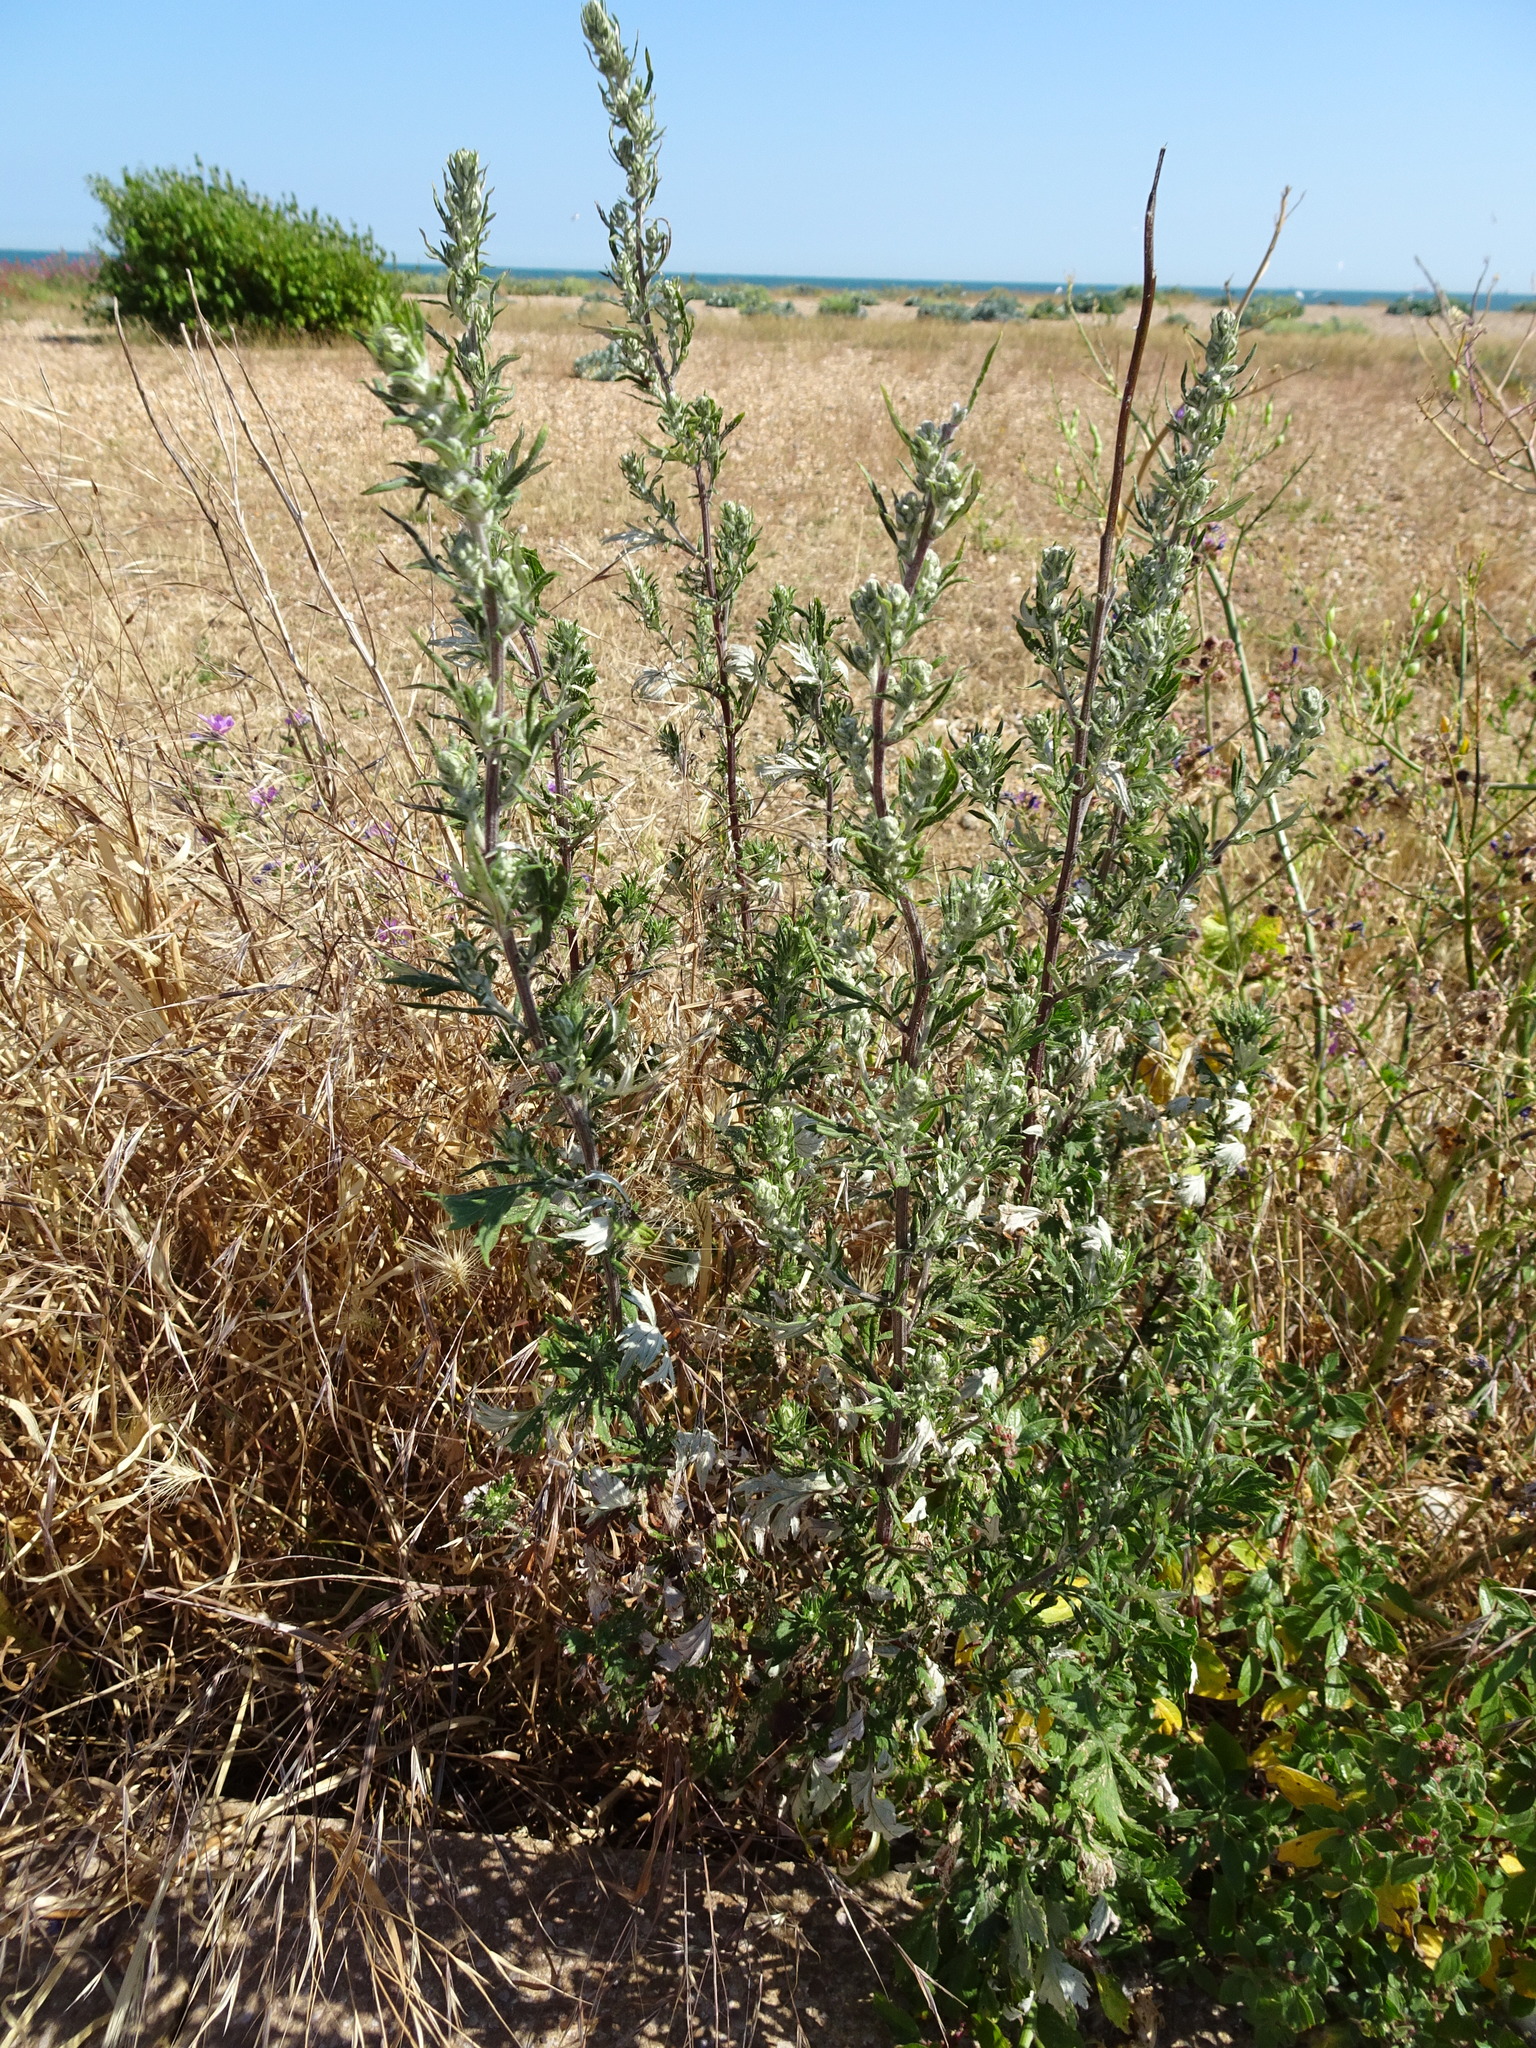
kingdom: Plantae
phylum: Tracheophyta
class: Magnoliopsida
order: Asterales
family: Asteraceae
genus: Artemisia
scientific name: Artemisia vulgaris
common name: Mugwort
